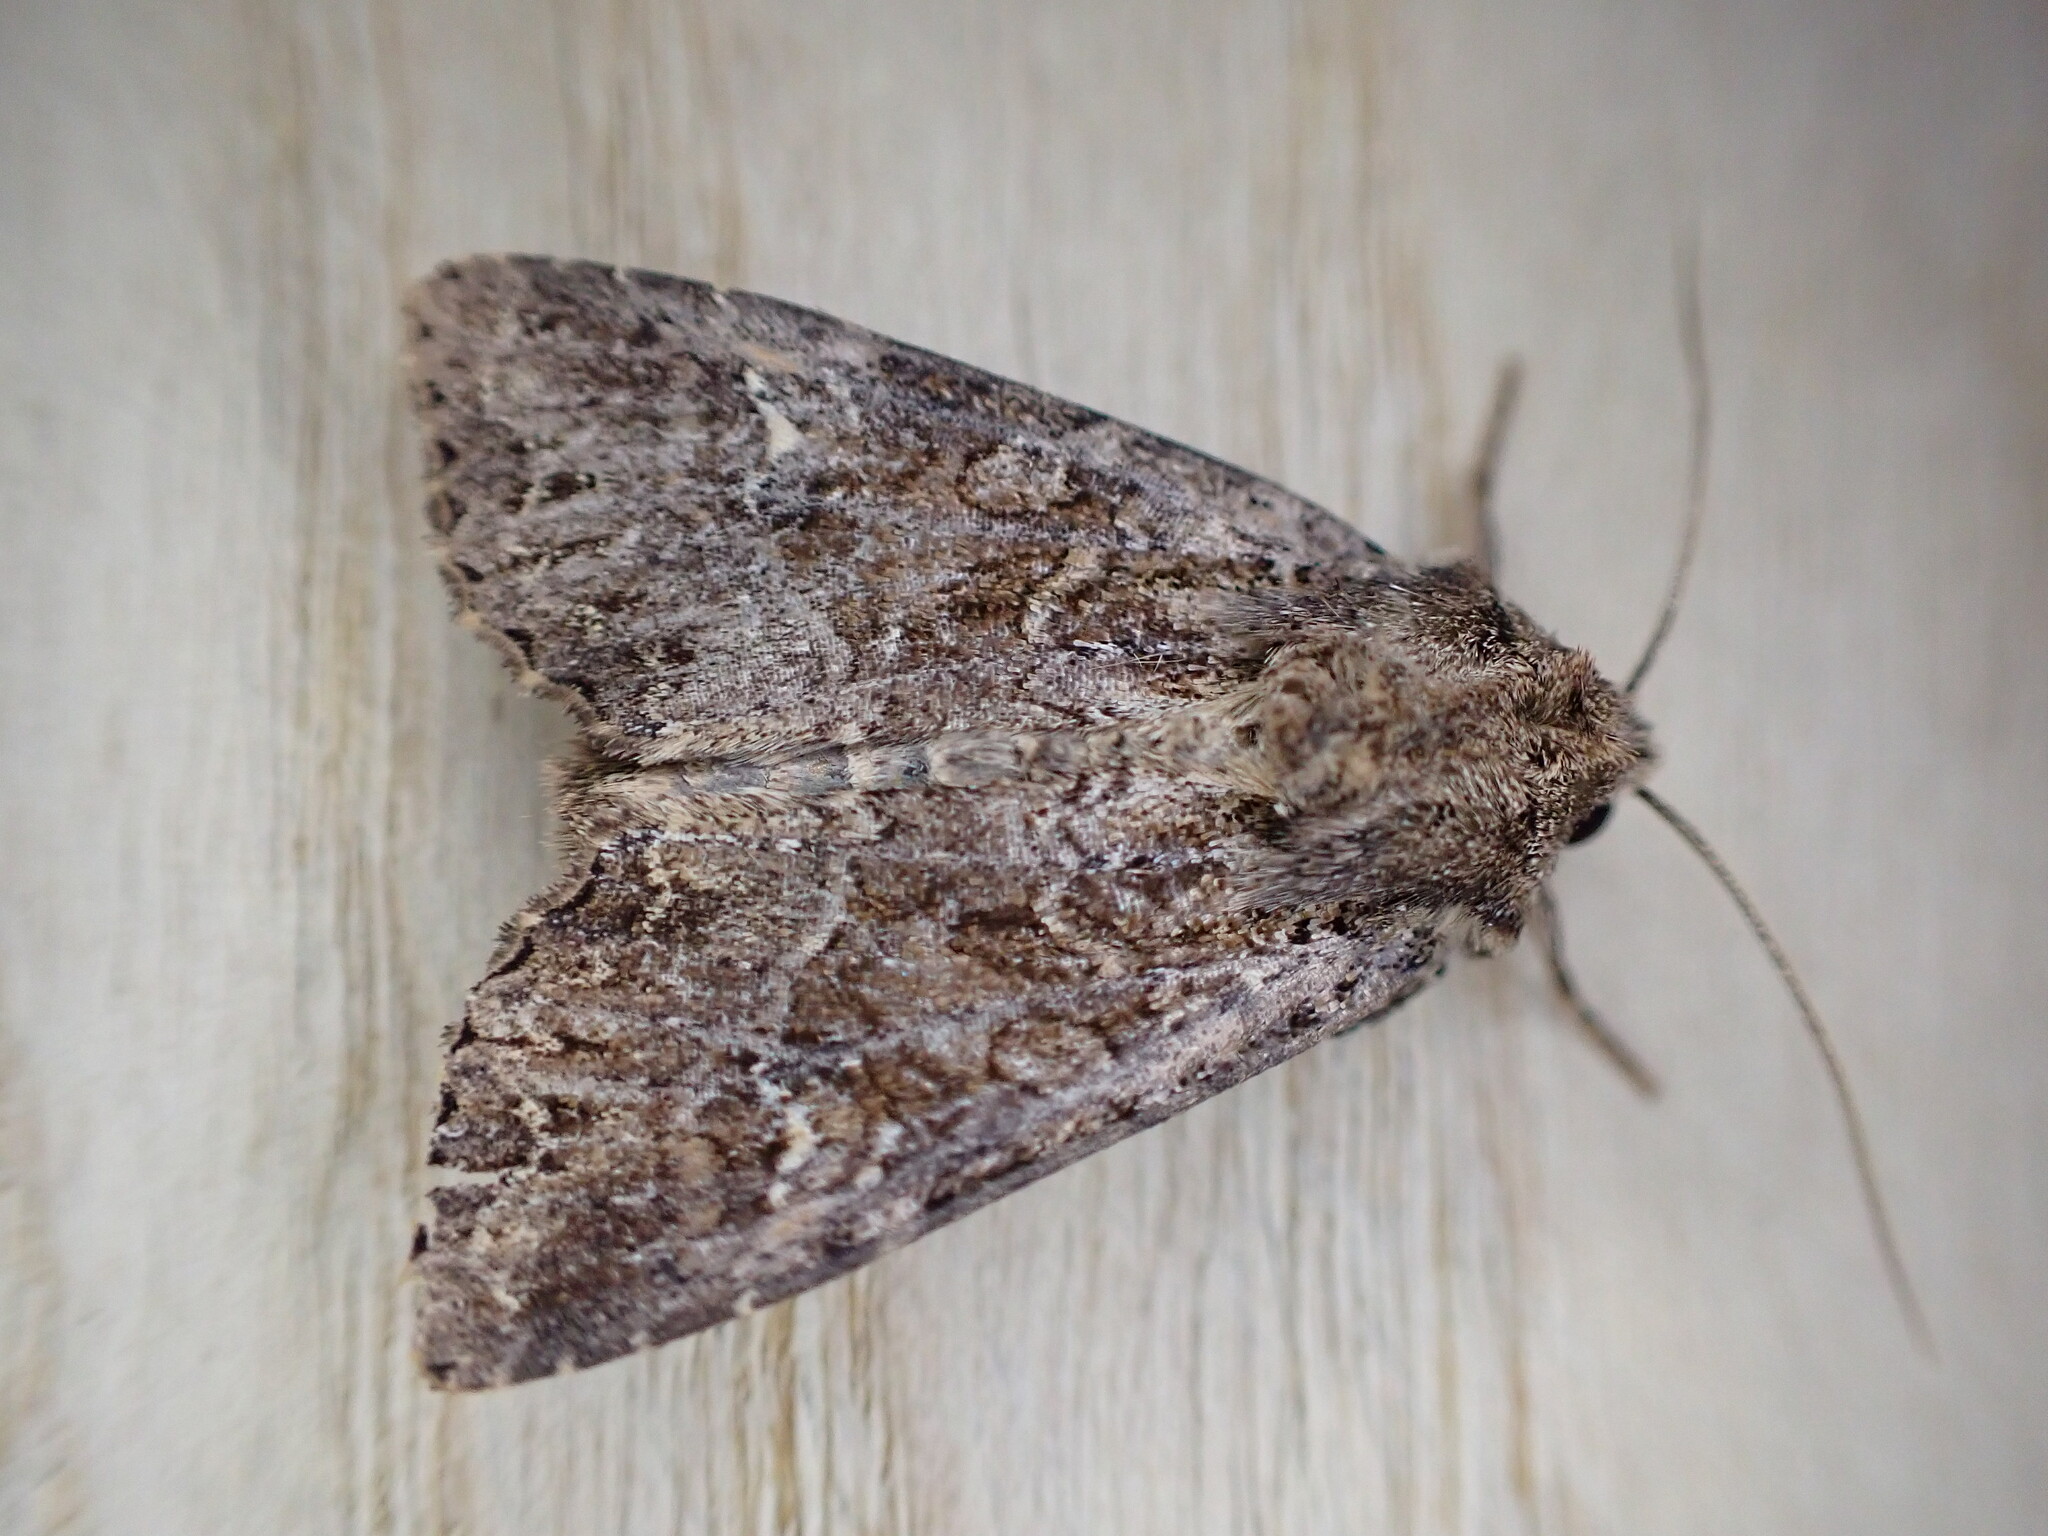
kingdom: Animalia
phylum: Arthropoda
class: Insecta
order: Lepidoptera
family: Noctuidae
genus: Apamea
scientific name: Apamea remissa
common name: Dusky brocade
